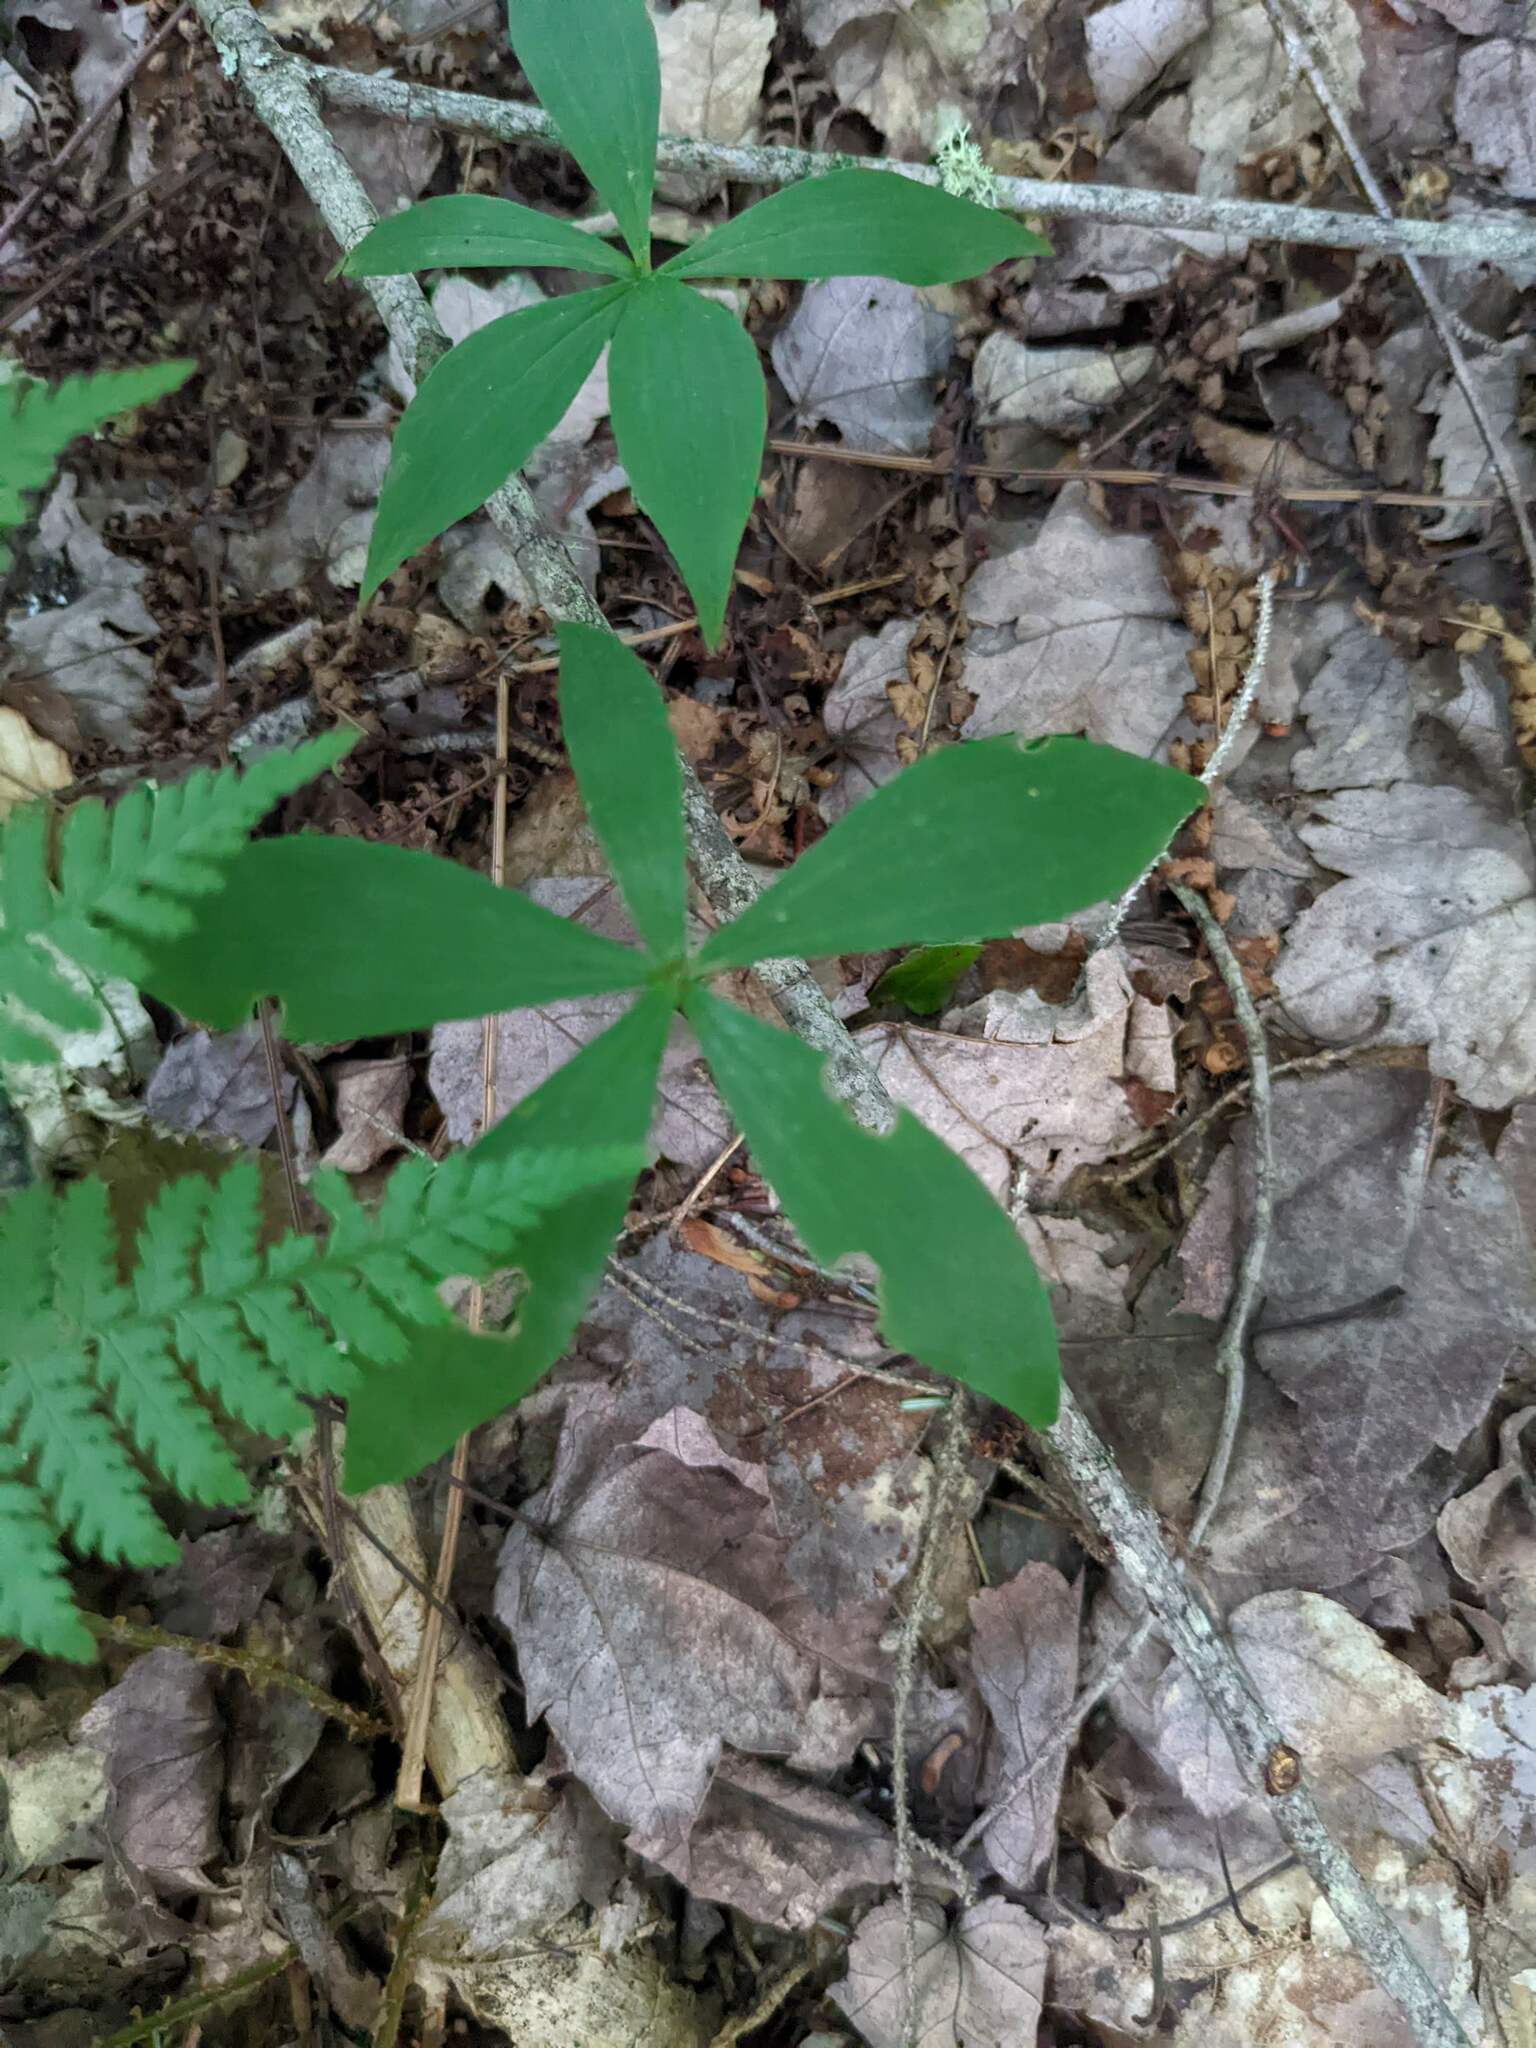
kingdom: Plantae
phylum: Tracheophyta
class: Liliopsida
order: Liliales
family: Liliaceae
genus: Medeola
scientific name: Medeola virginiana
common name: Indian cucumber-root
